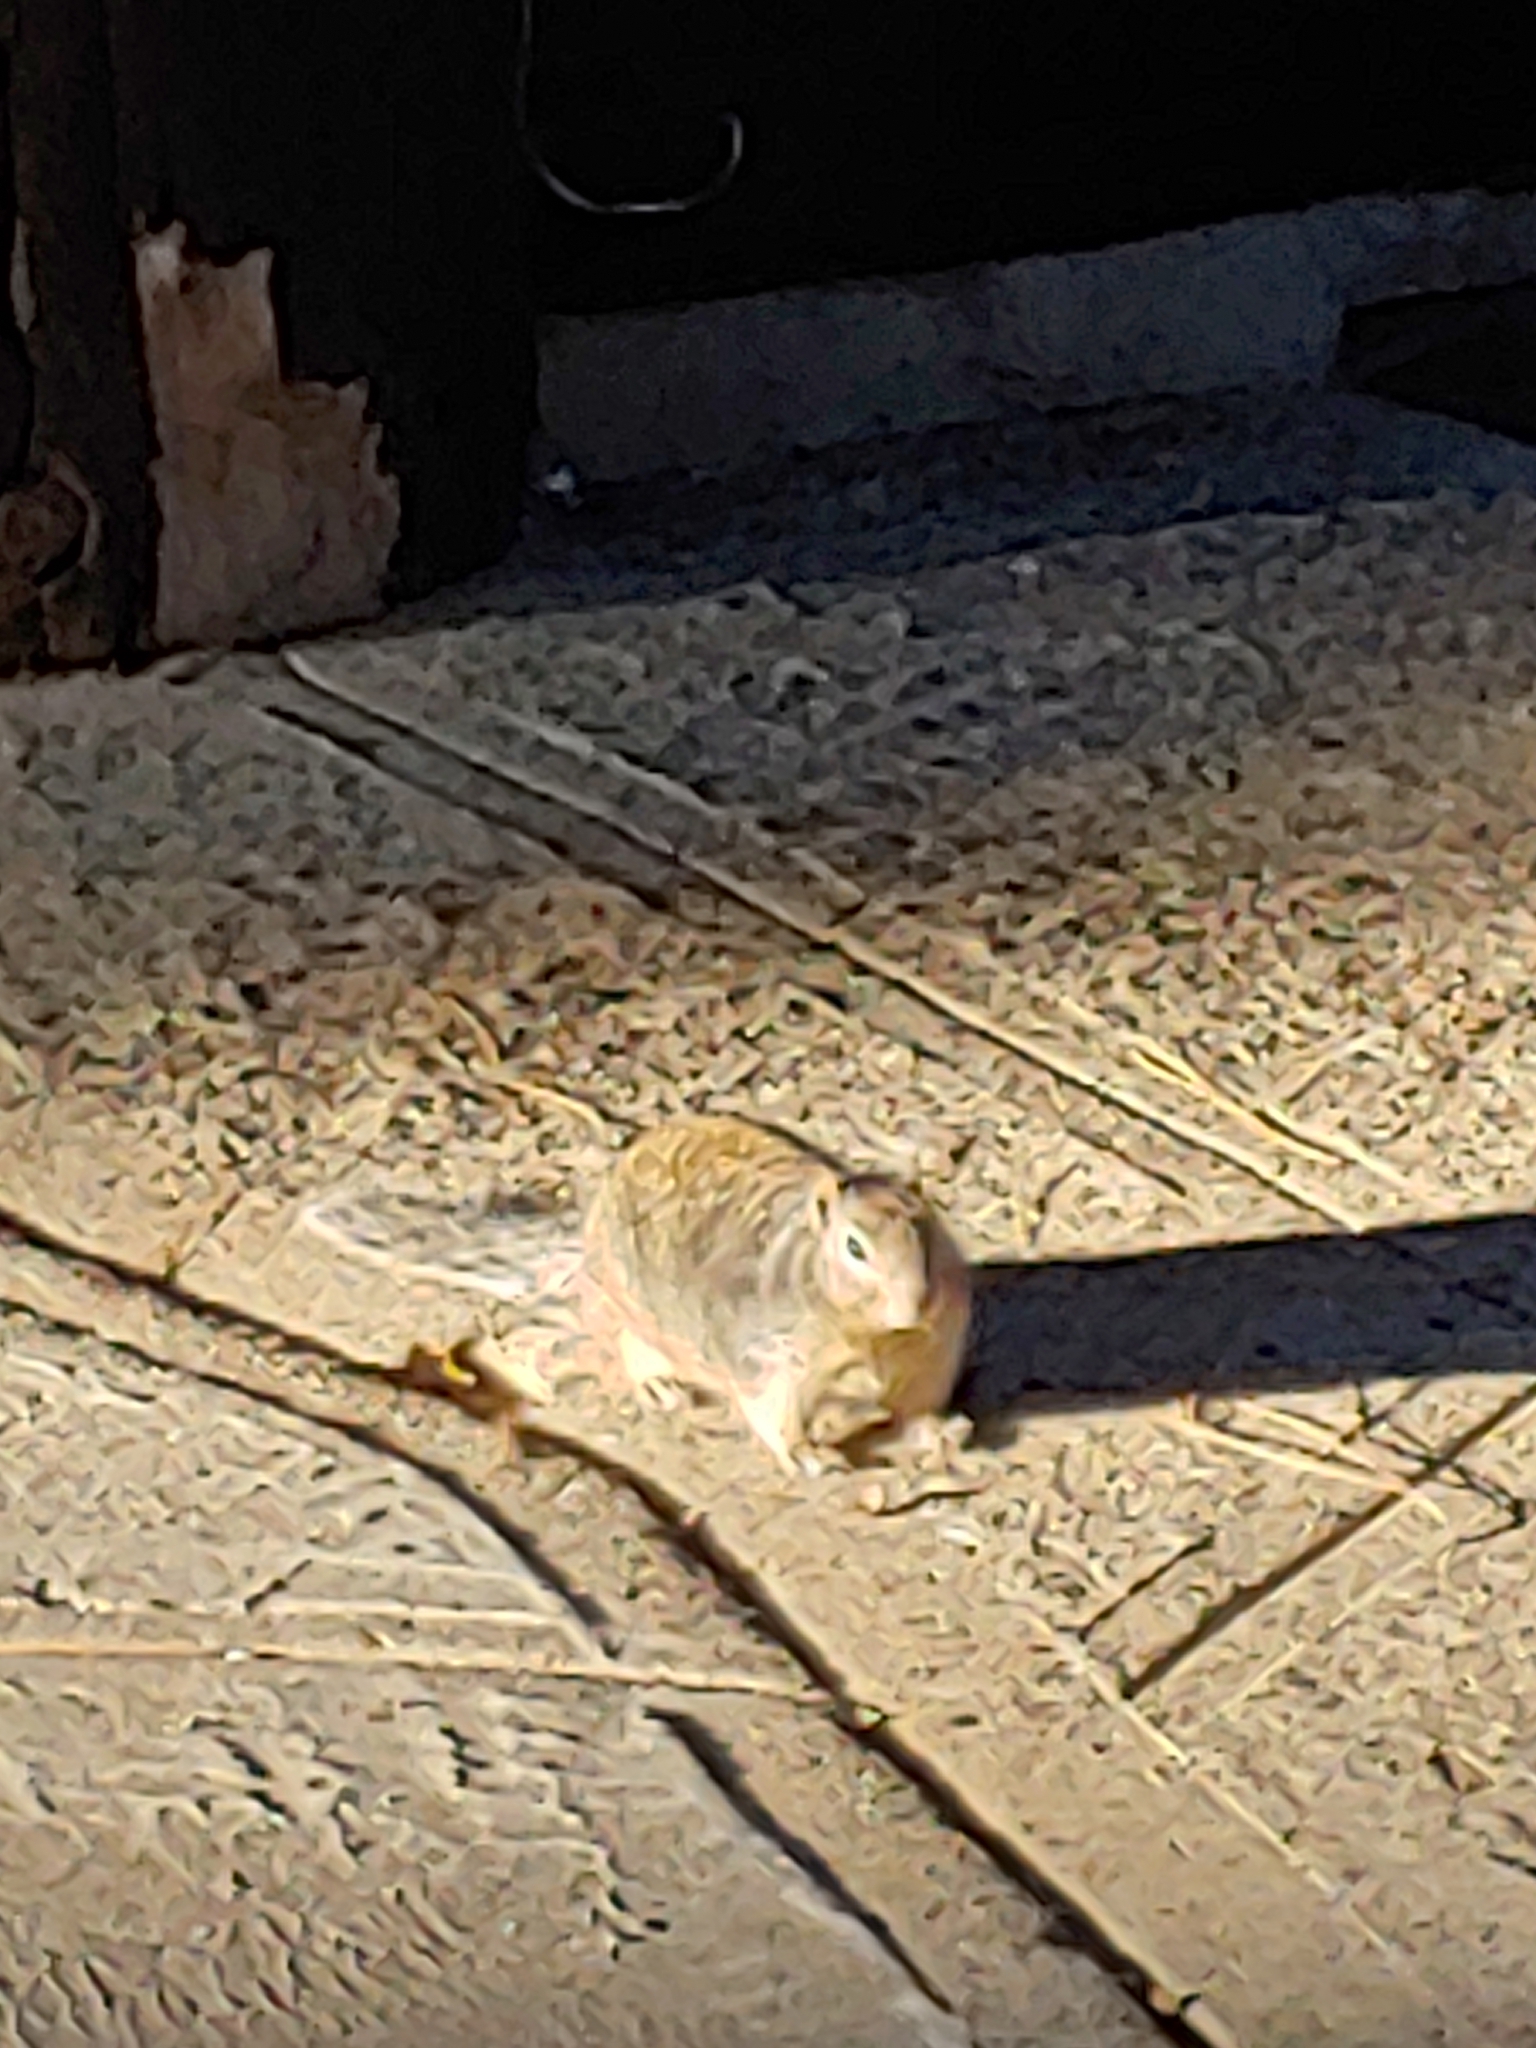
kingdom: Animalia
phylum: Chordata
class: Mammalia
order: Rodentia
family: Sciuridae
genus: Otospermophilus
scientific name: Otospermophilus variegatus
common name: Rock squirrel
